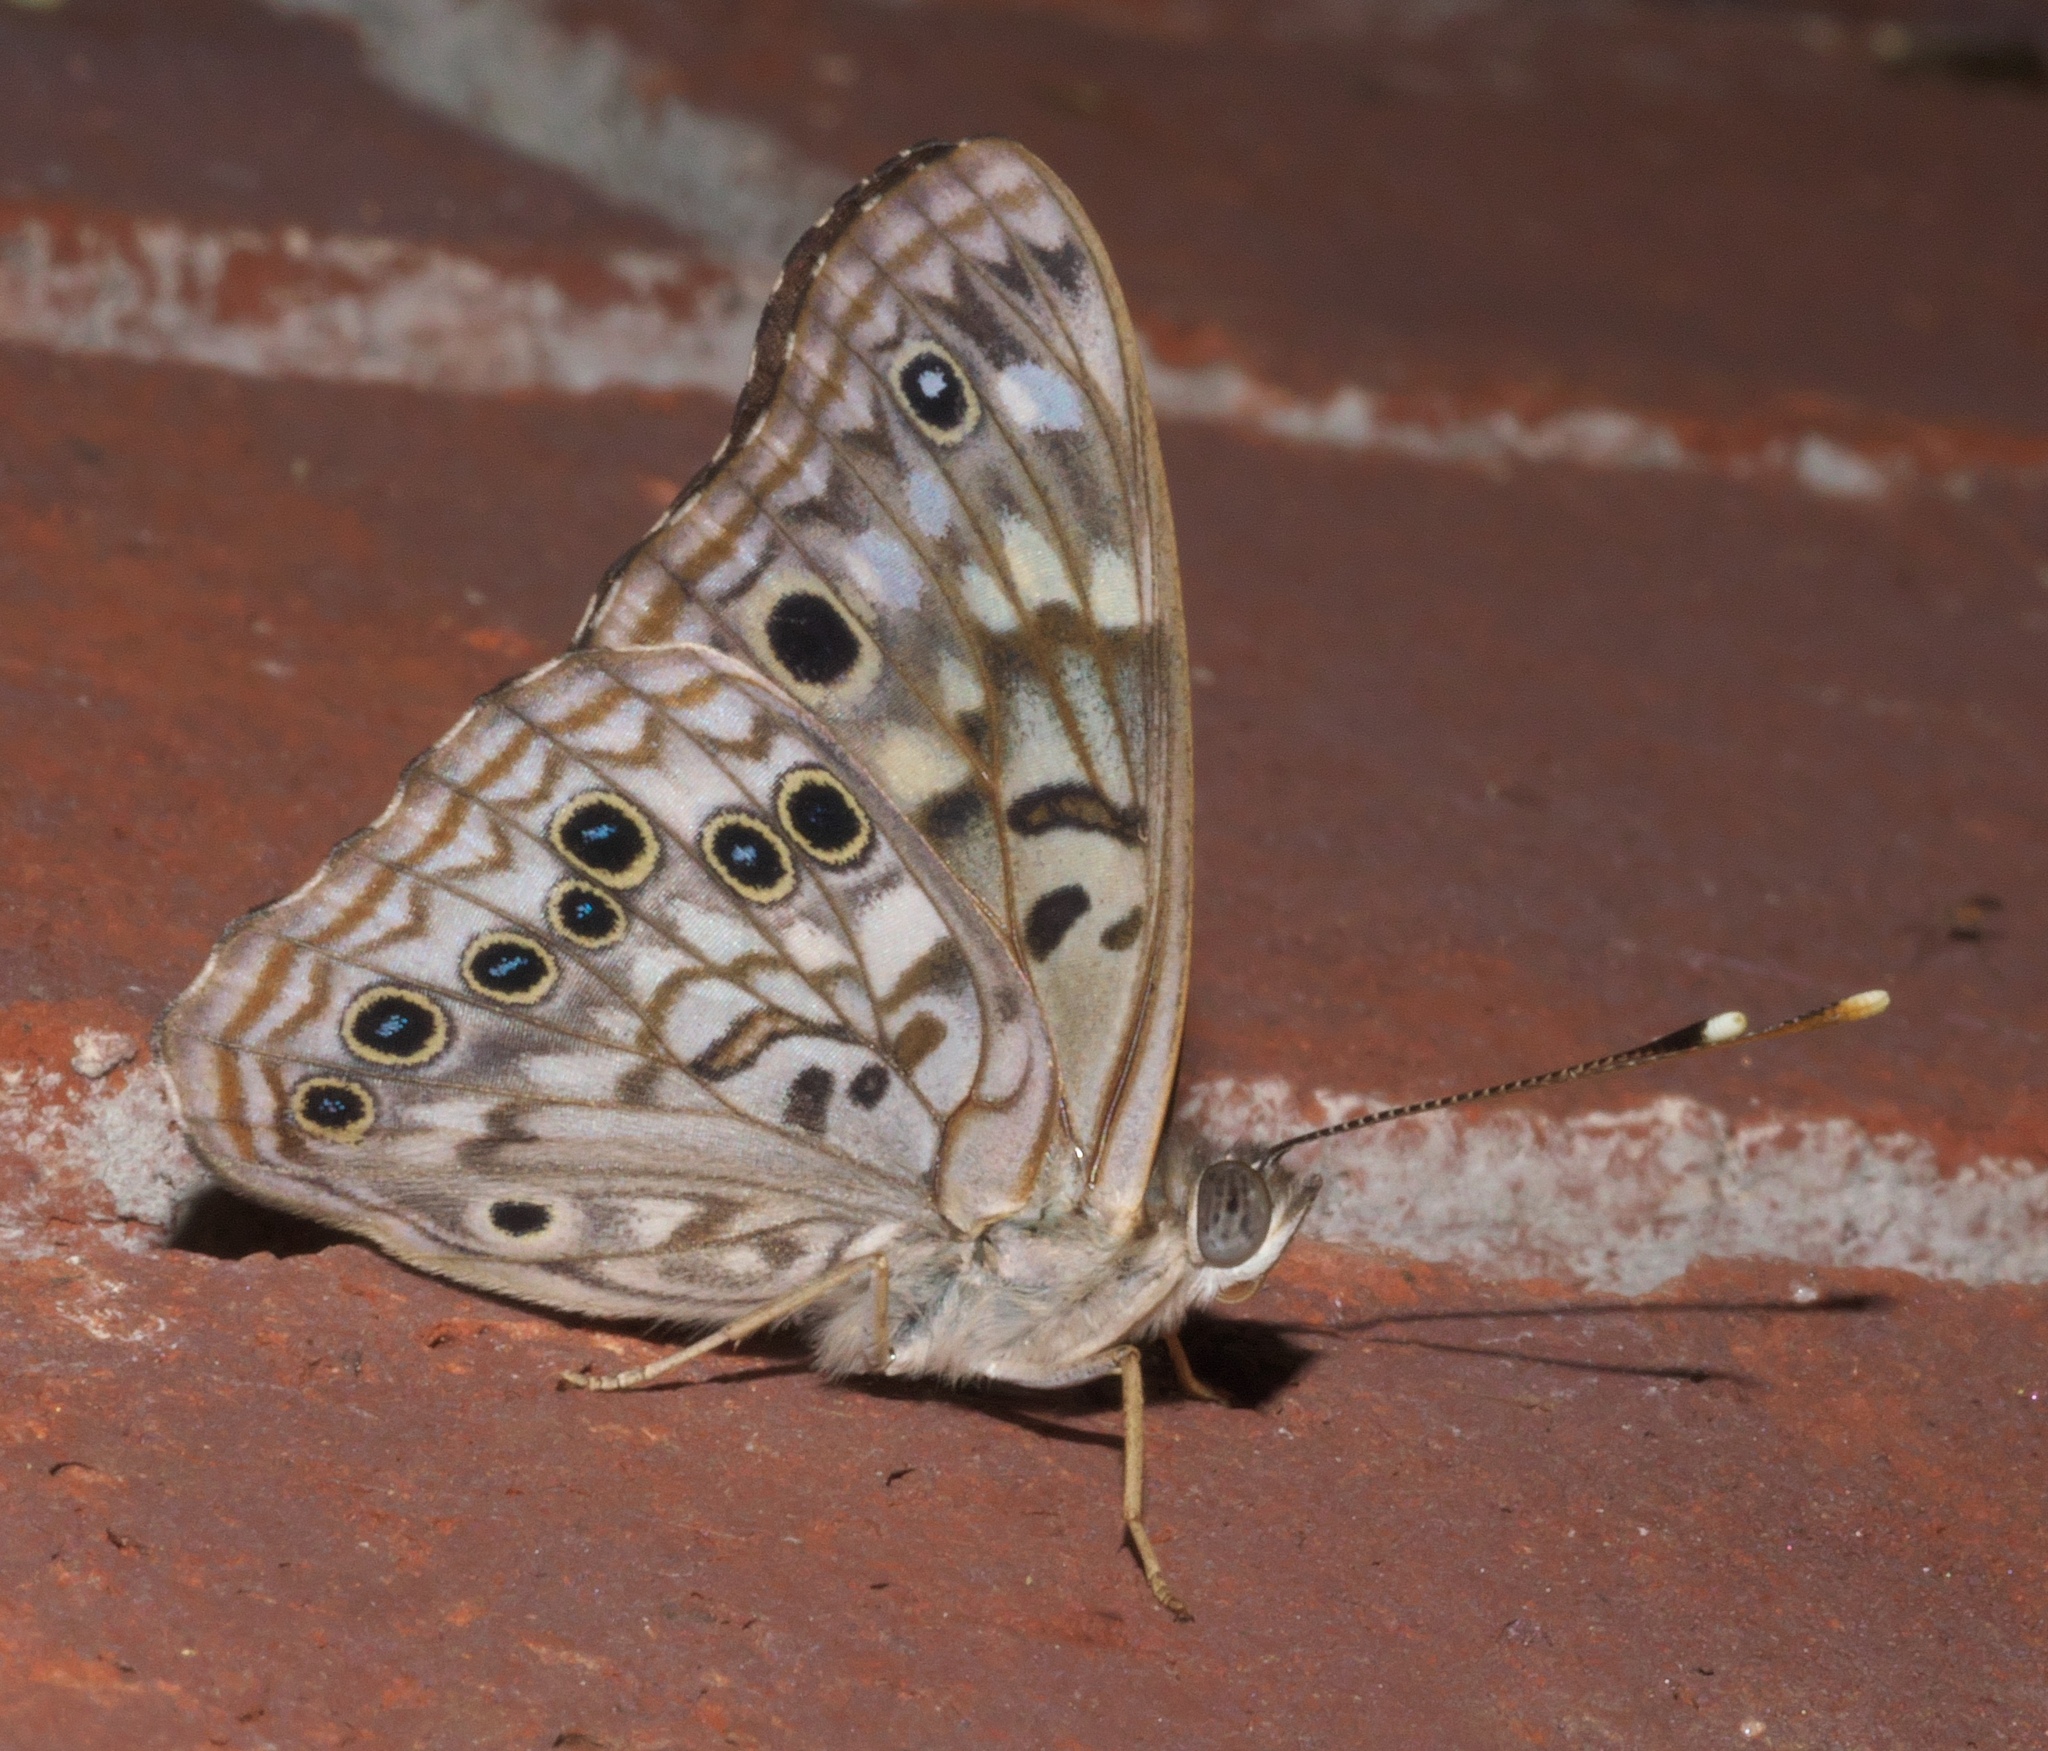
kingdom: Animalia
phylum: Arthropoda
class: Insecta
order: Lepidoptera
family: Nymphalidae
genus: Asterocampa
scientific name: Asterocampa celtis
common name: Hackberry emperor
